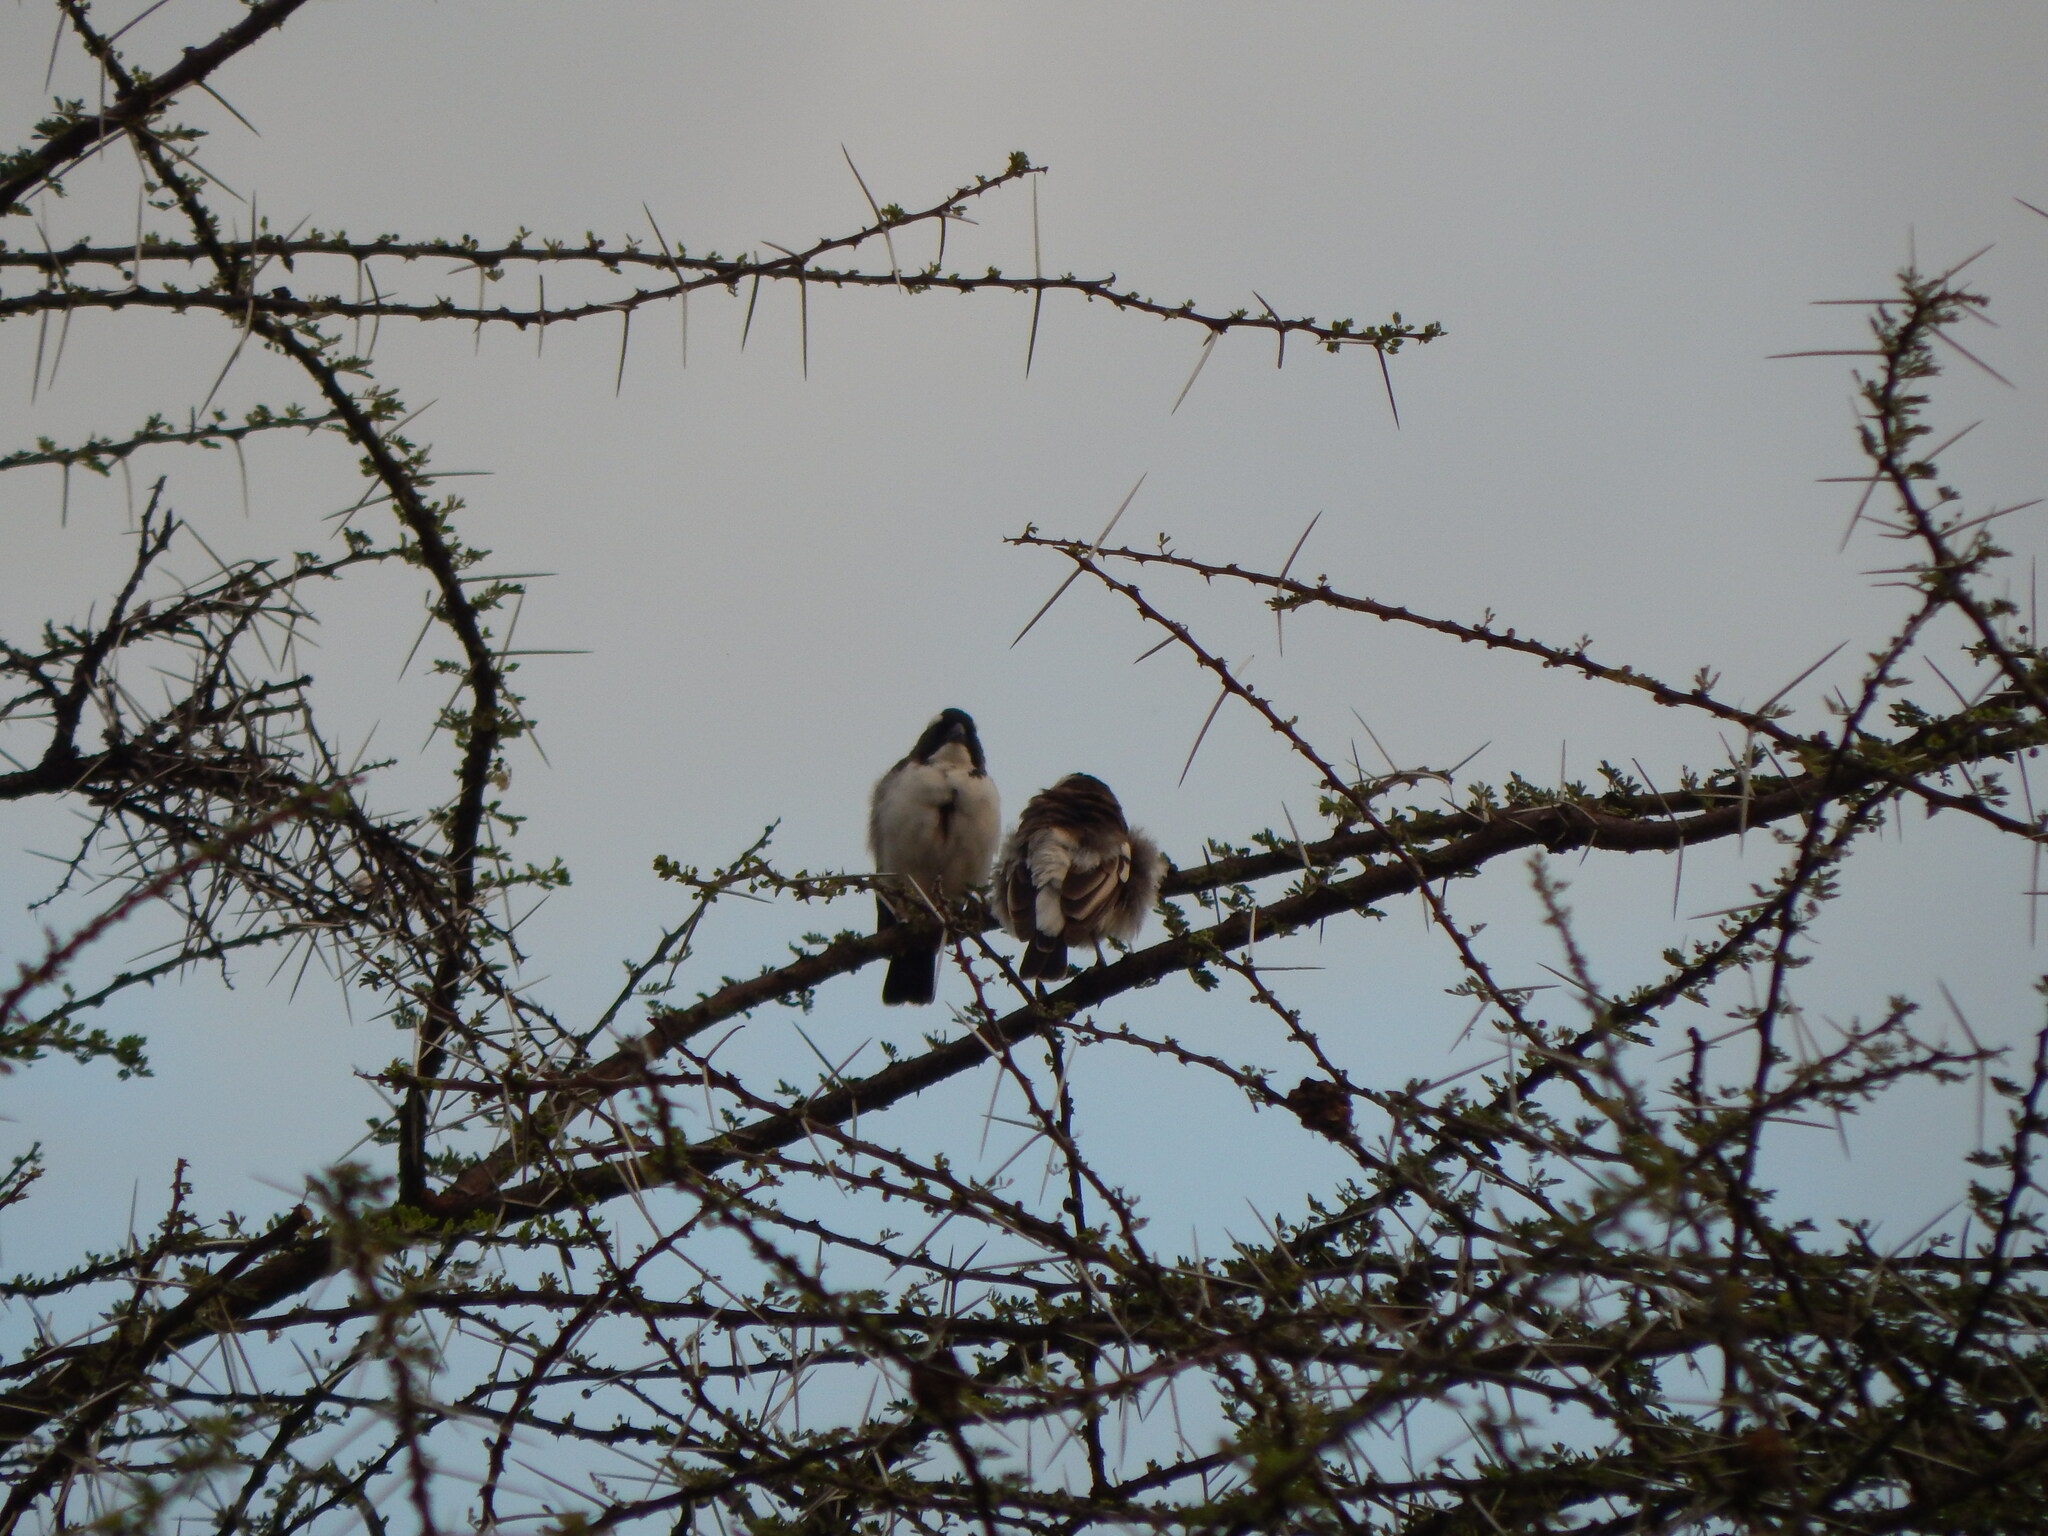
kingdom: Animalia
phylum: Chordata
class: Aves
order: Passeriformes
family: Passeridae
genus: Plocepasser
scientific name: Plocepasser mahali
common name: White-browed sparrow-weaver
